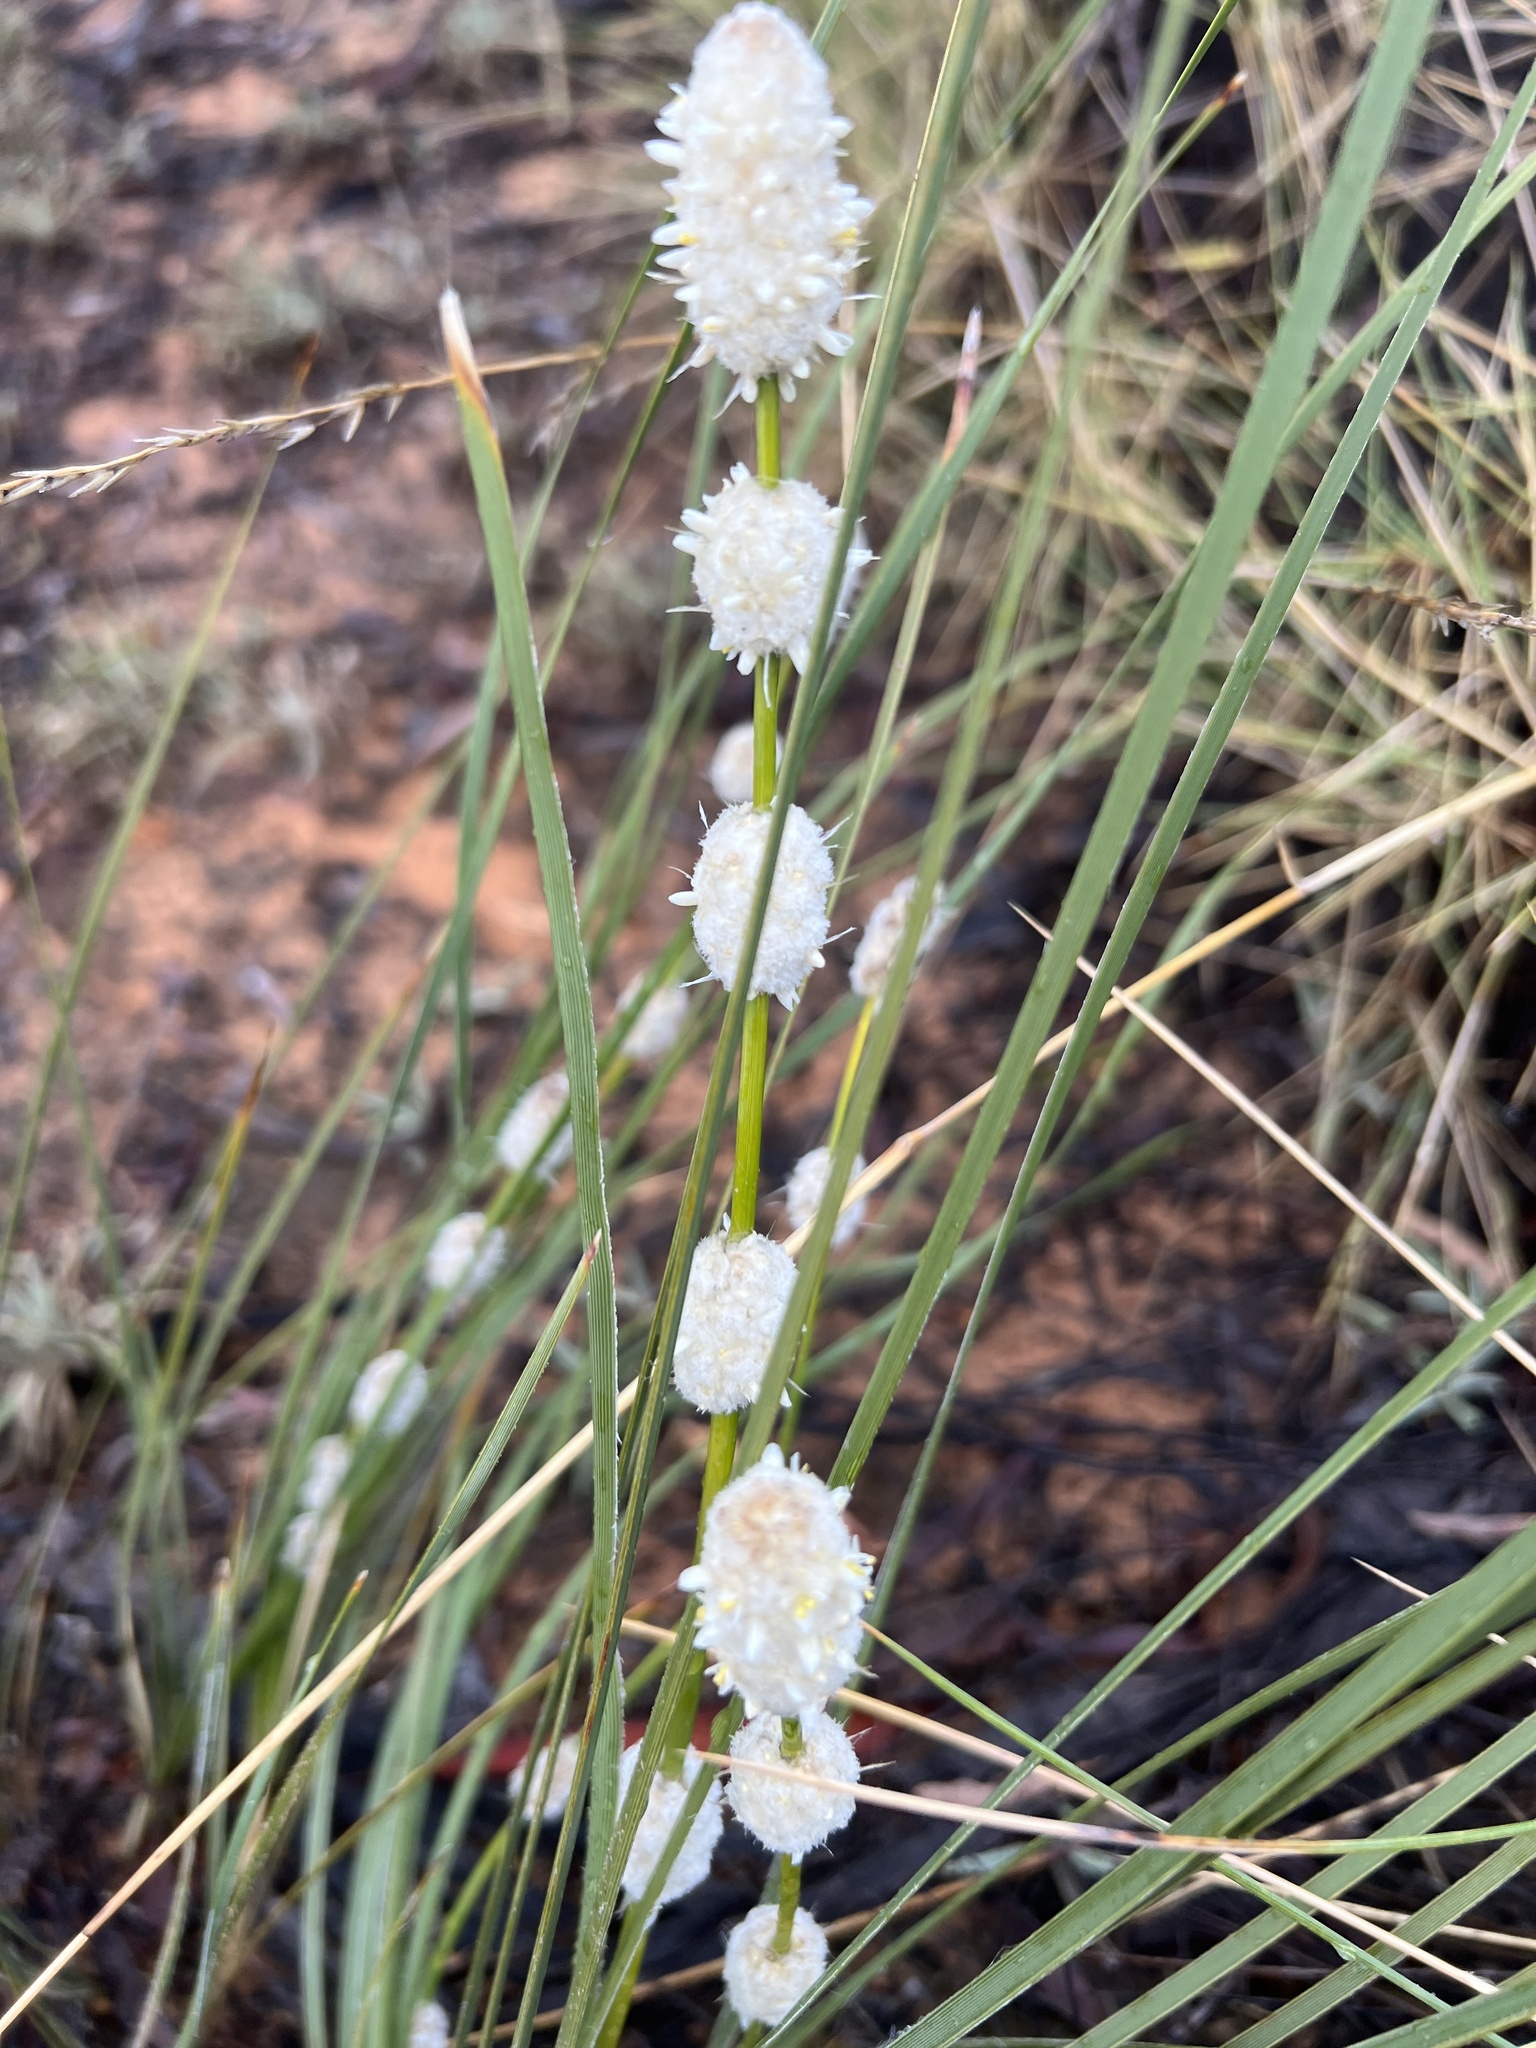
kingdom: Plantae
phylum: Tracheophyta
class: Liliopsida
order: Asparagales
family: Asparagaceae
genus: Lomandra
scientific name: Lomandra leucocephala
